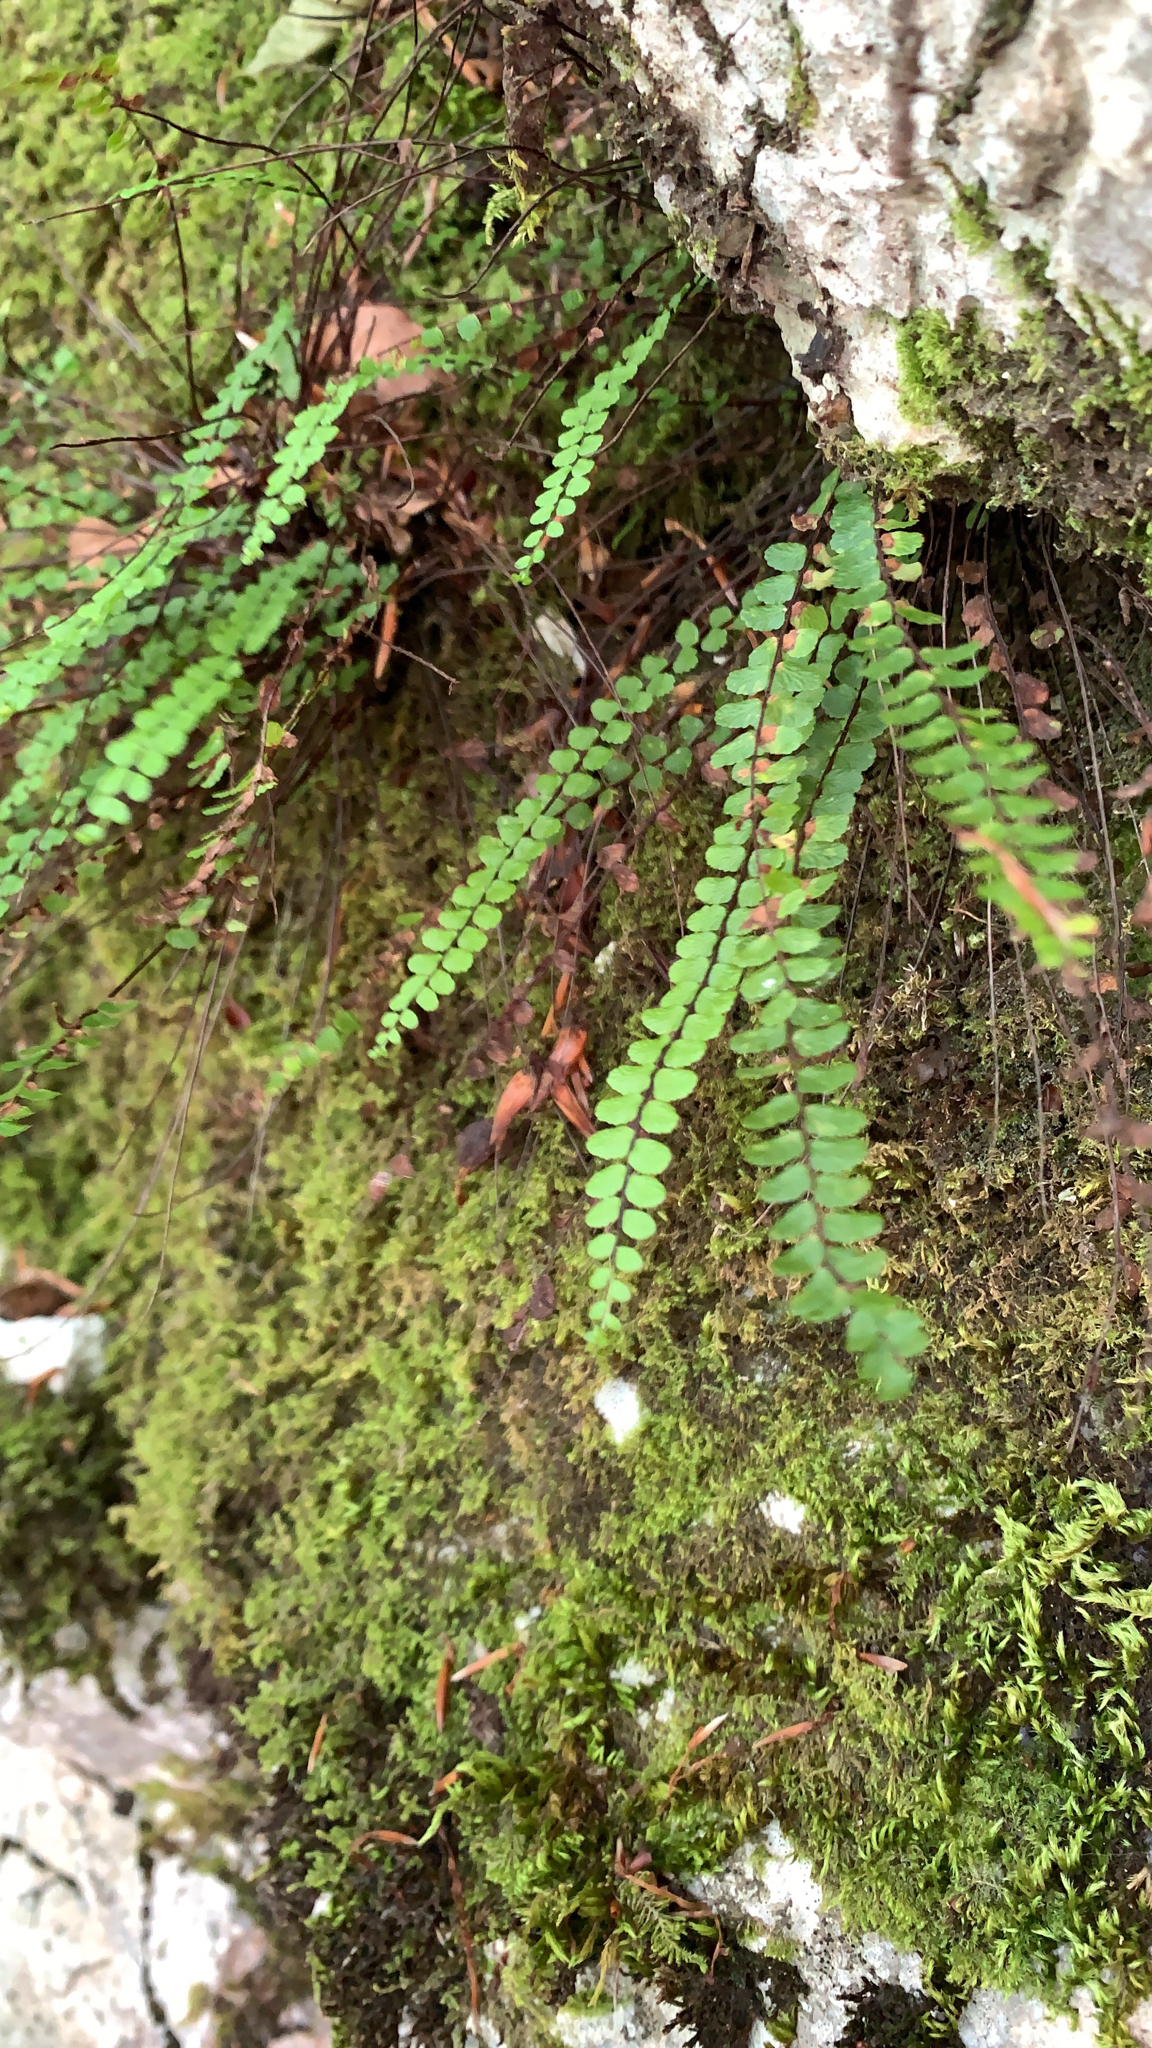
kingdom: Plantae
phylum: Tracheophyta
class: Polypodiopsida
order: Polypodiales
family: Aspleniaceae
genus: Asplenium
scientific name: Asplenium trichomanes
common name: Maidenhair spleenwort
